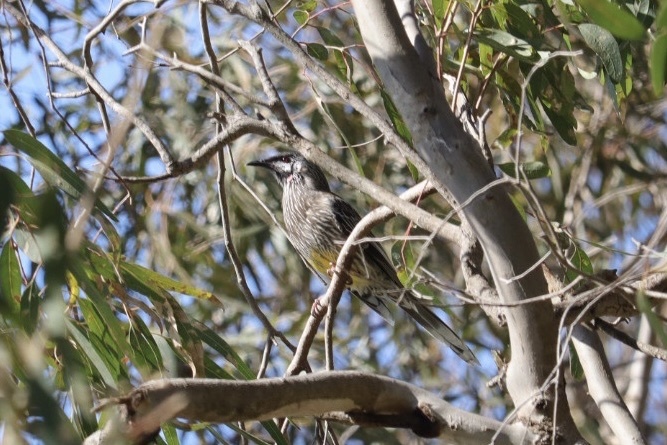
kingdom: Animalia
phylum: Chordata
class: Aves
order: Passeriformes
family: Meliphagidae
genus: Anthochaera
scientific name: Anthochaera carunculata
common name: Red wattlebird
